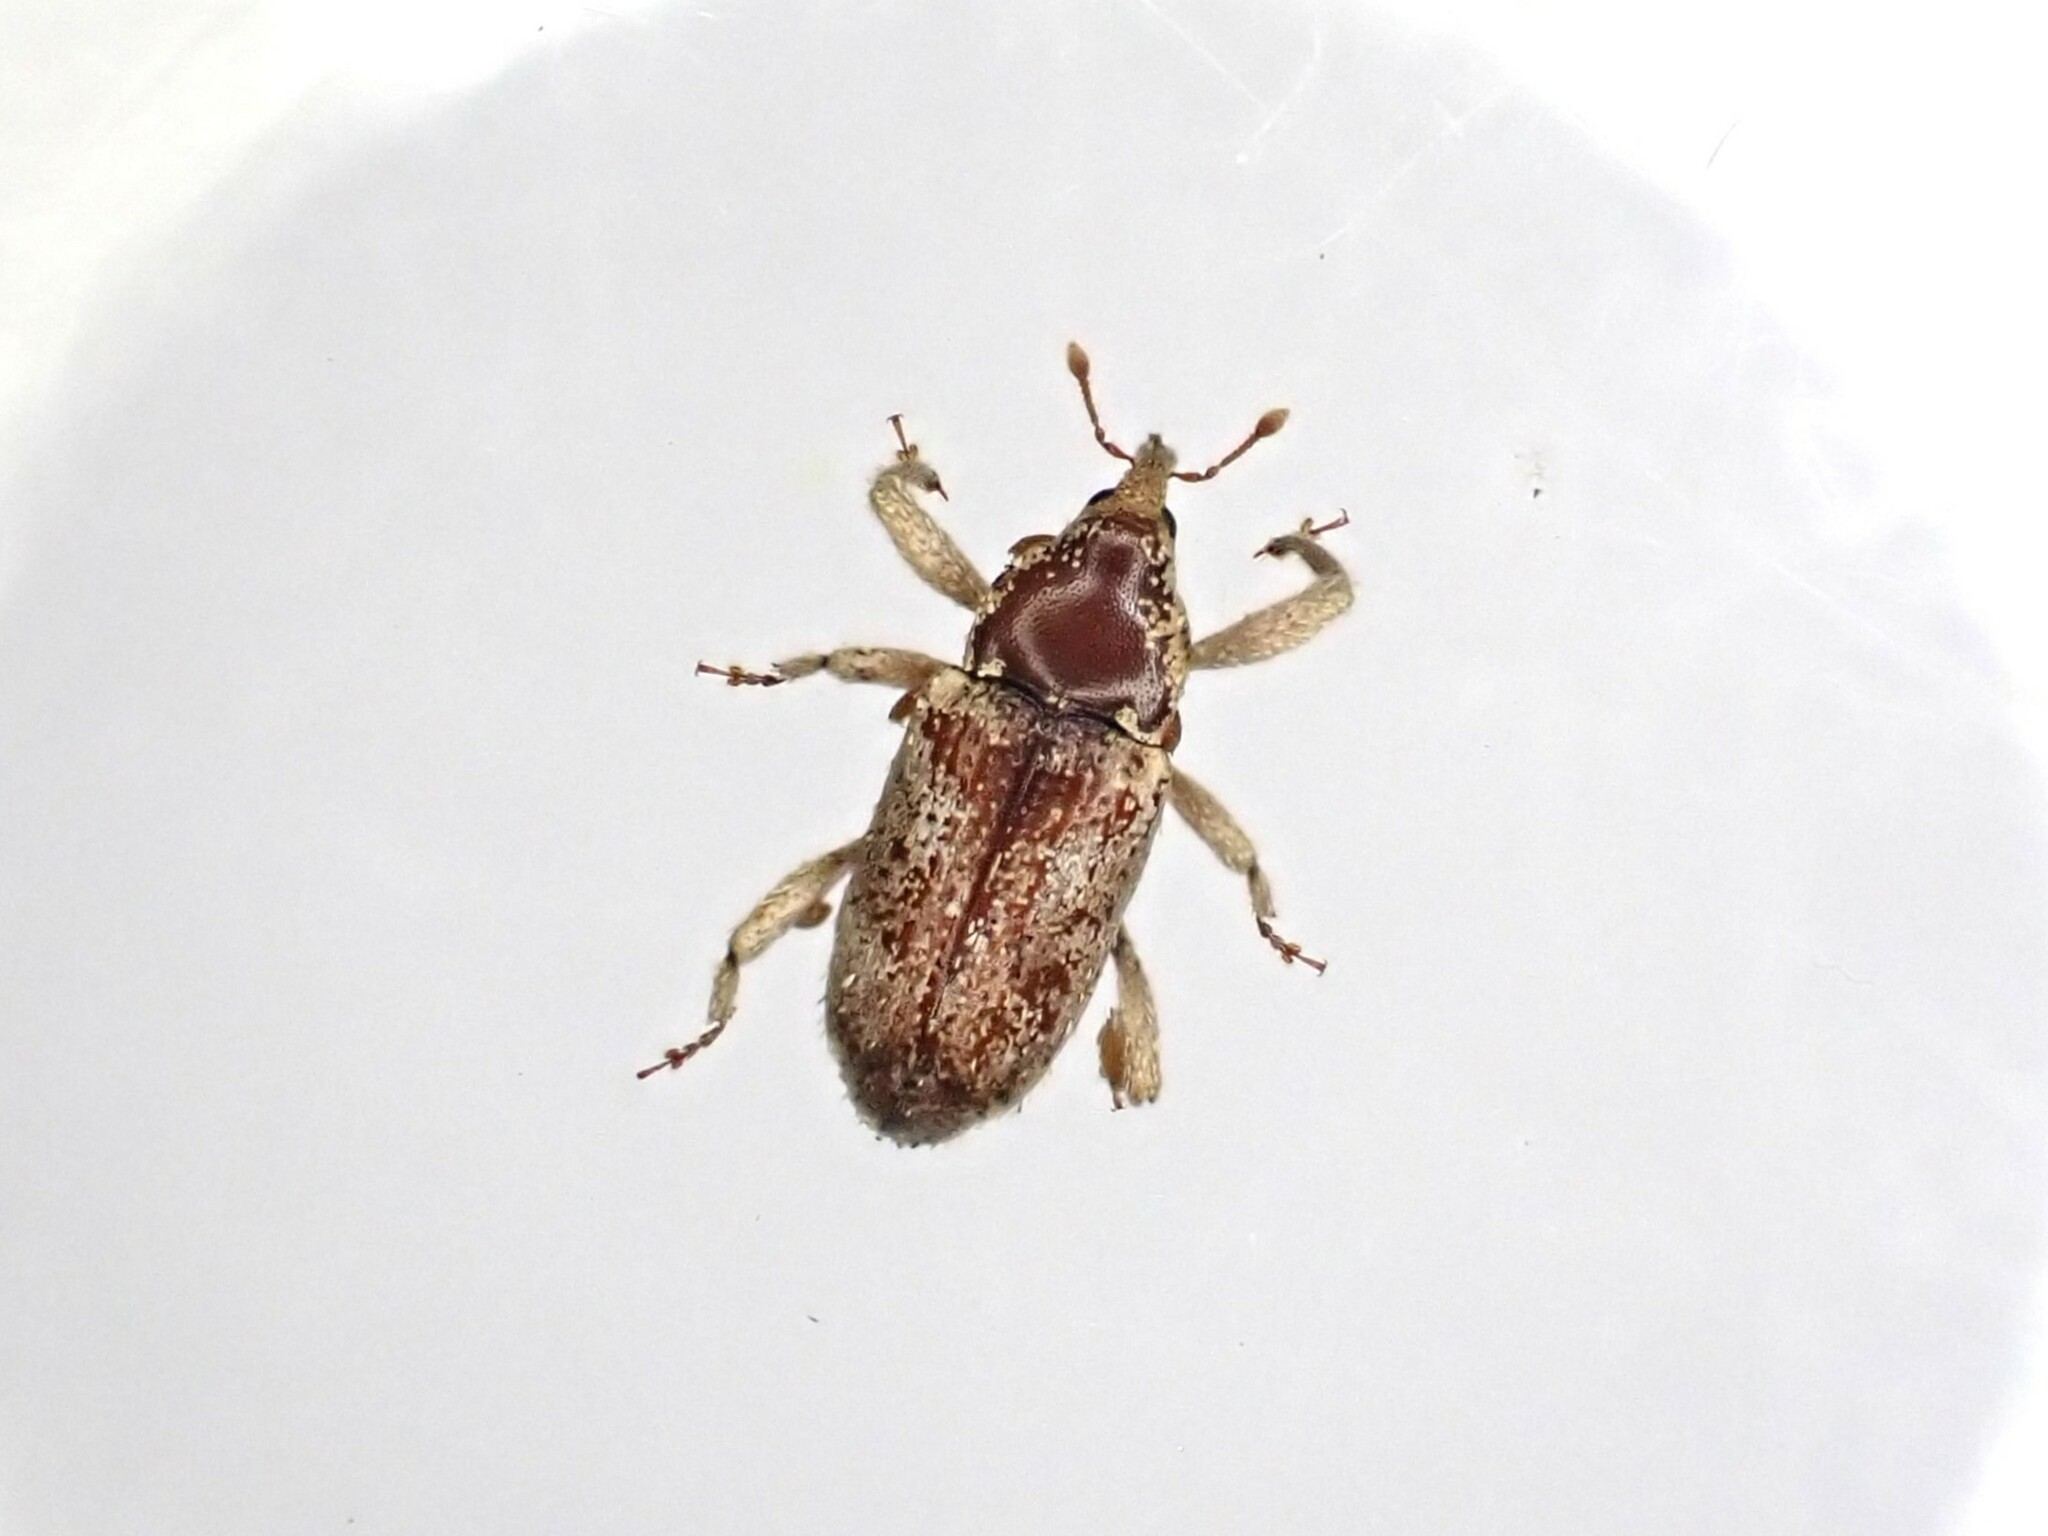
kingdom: Animalia
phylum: Arthropoda
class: Insecta
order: Coleoptera
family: Curculionidae
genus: Mitrastethus
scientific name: Mitrastethus baridioides
